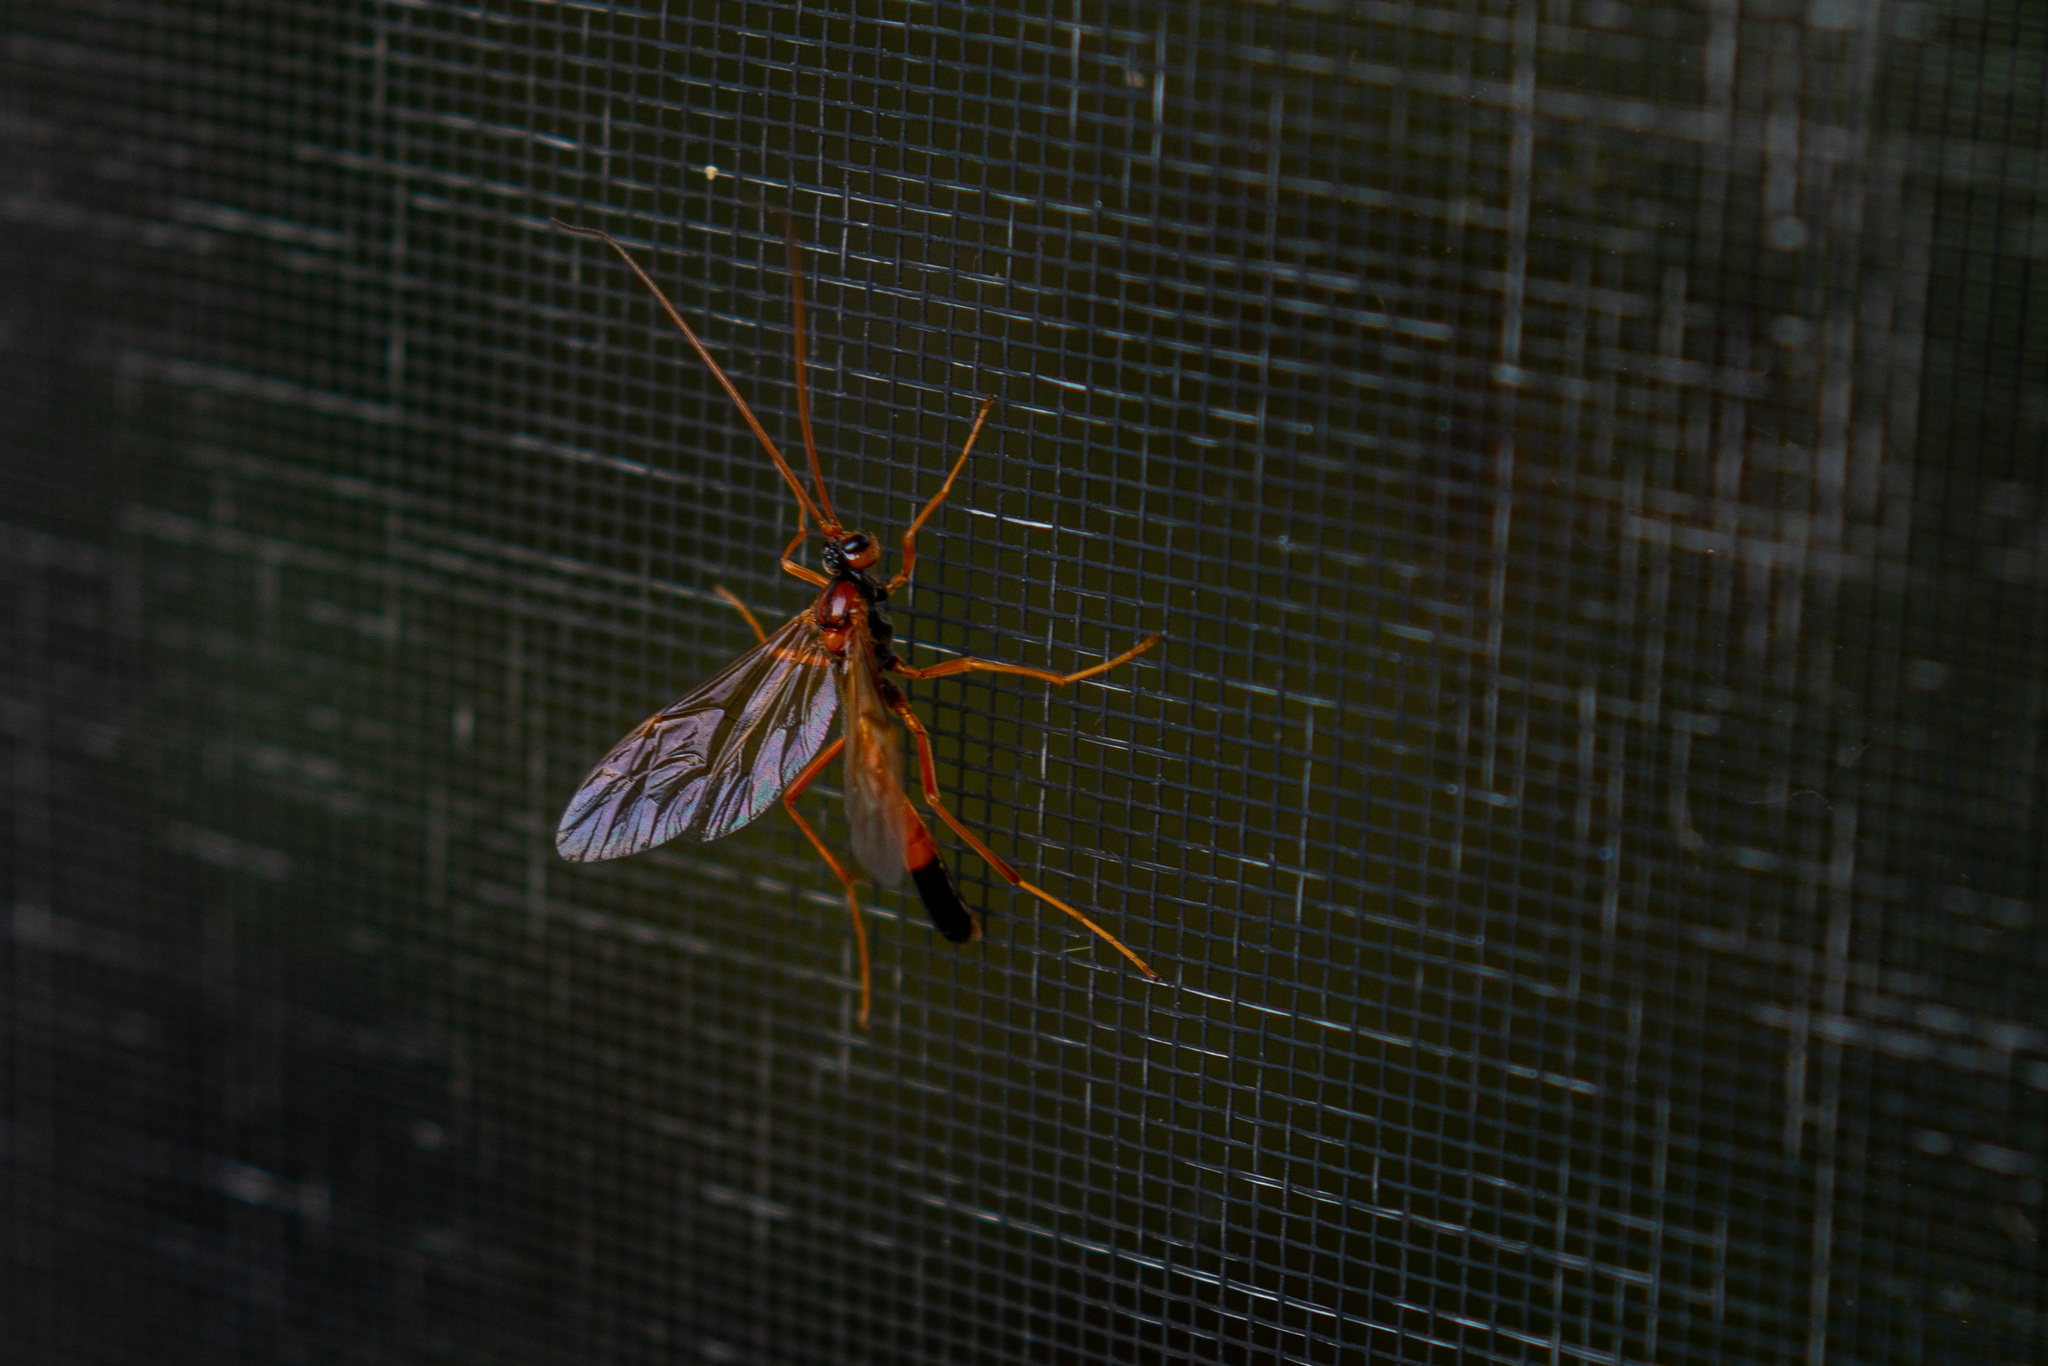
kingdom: Animalia
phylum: Arthropoda
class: Insecta
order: Hymenoptera
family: Ichneumonidae
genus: Opheltes
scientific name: Opheltes glaucopterus
